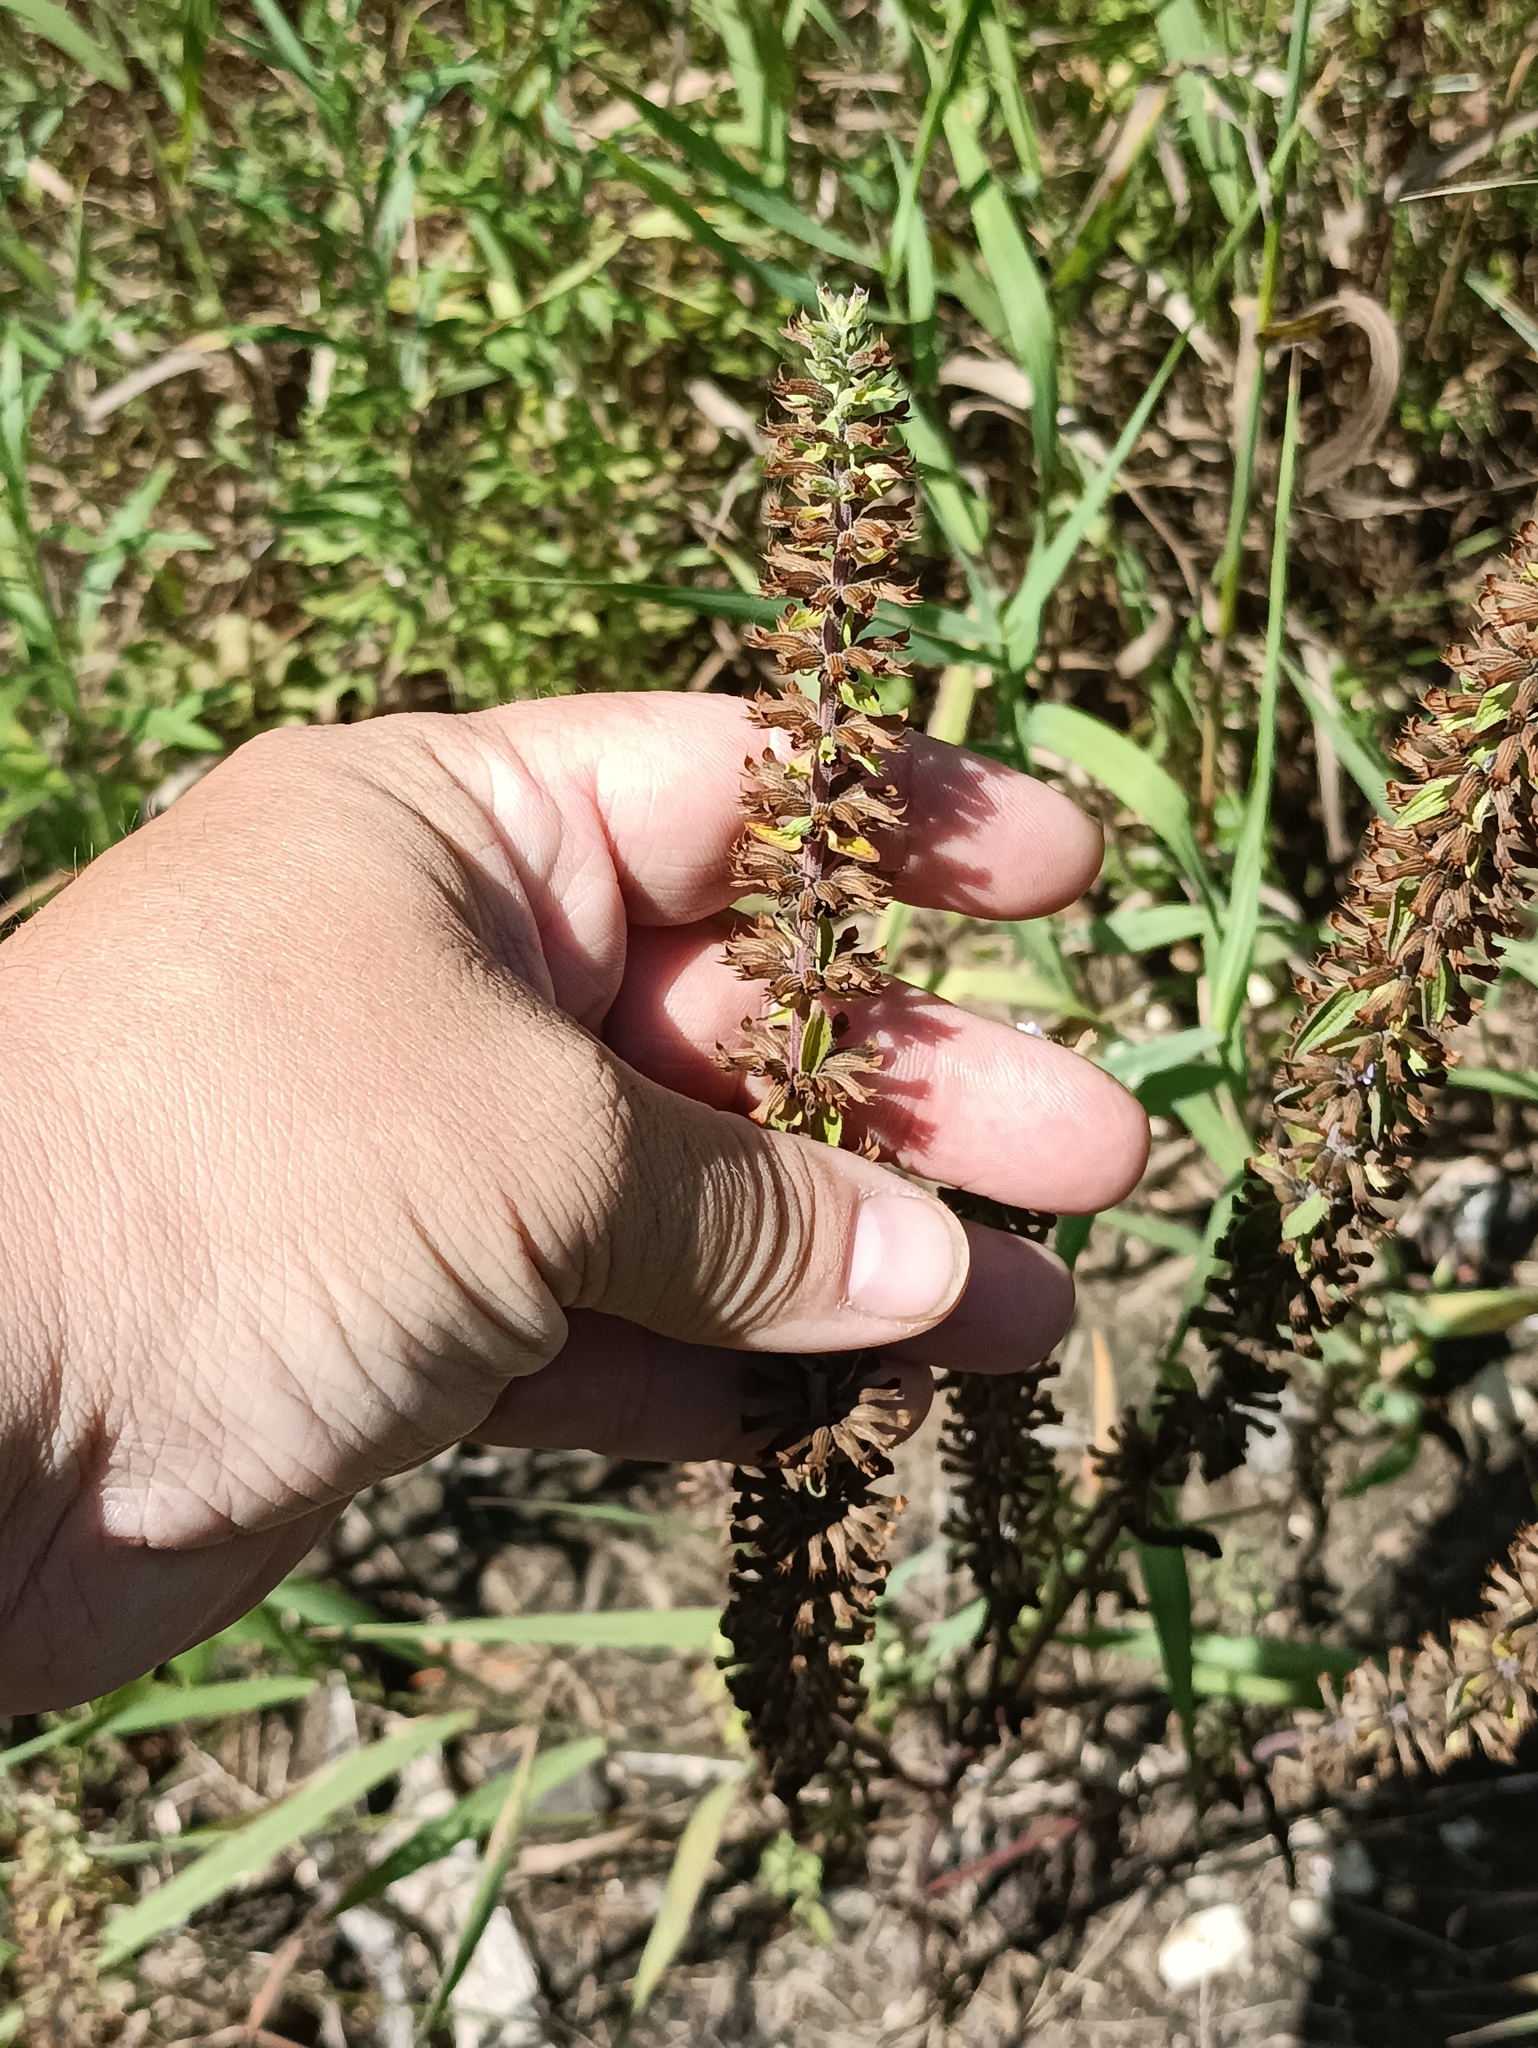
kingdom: Plantae
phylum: Tracheophyta
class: Magnoliopsida
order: Lamiales
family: Lamiaceae
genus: Dracocephalum
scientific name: Dracocephalum thymiflorum
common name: Thymeleaf dragonhead
